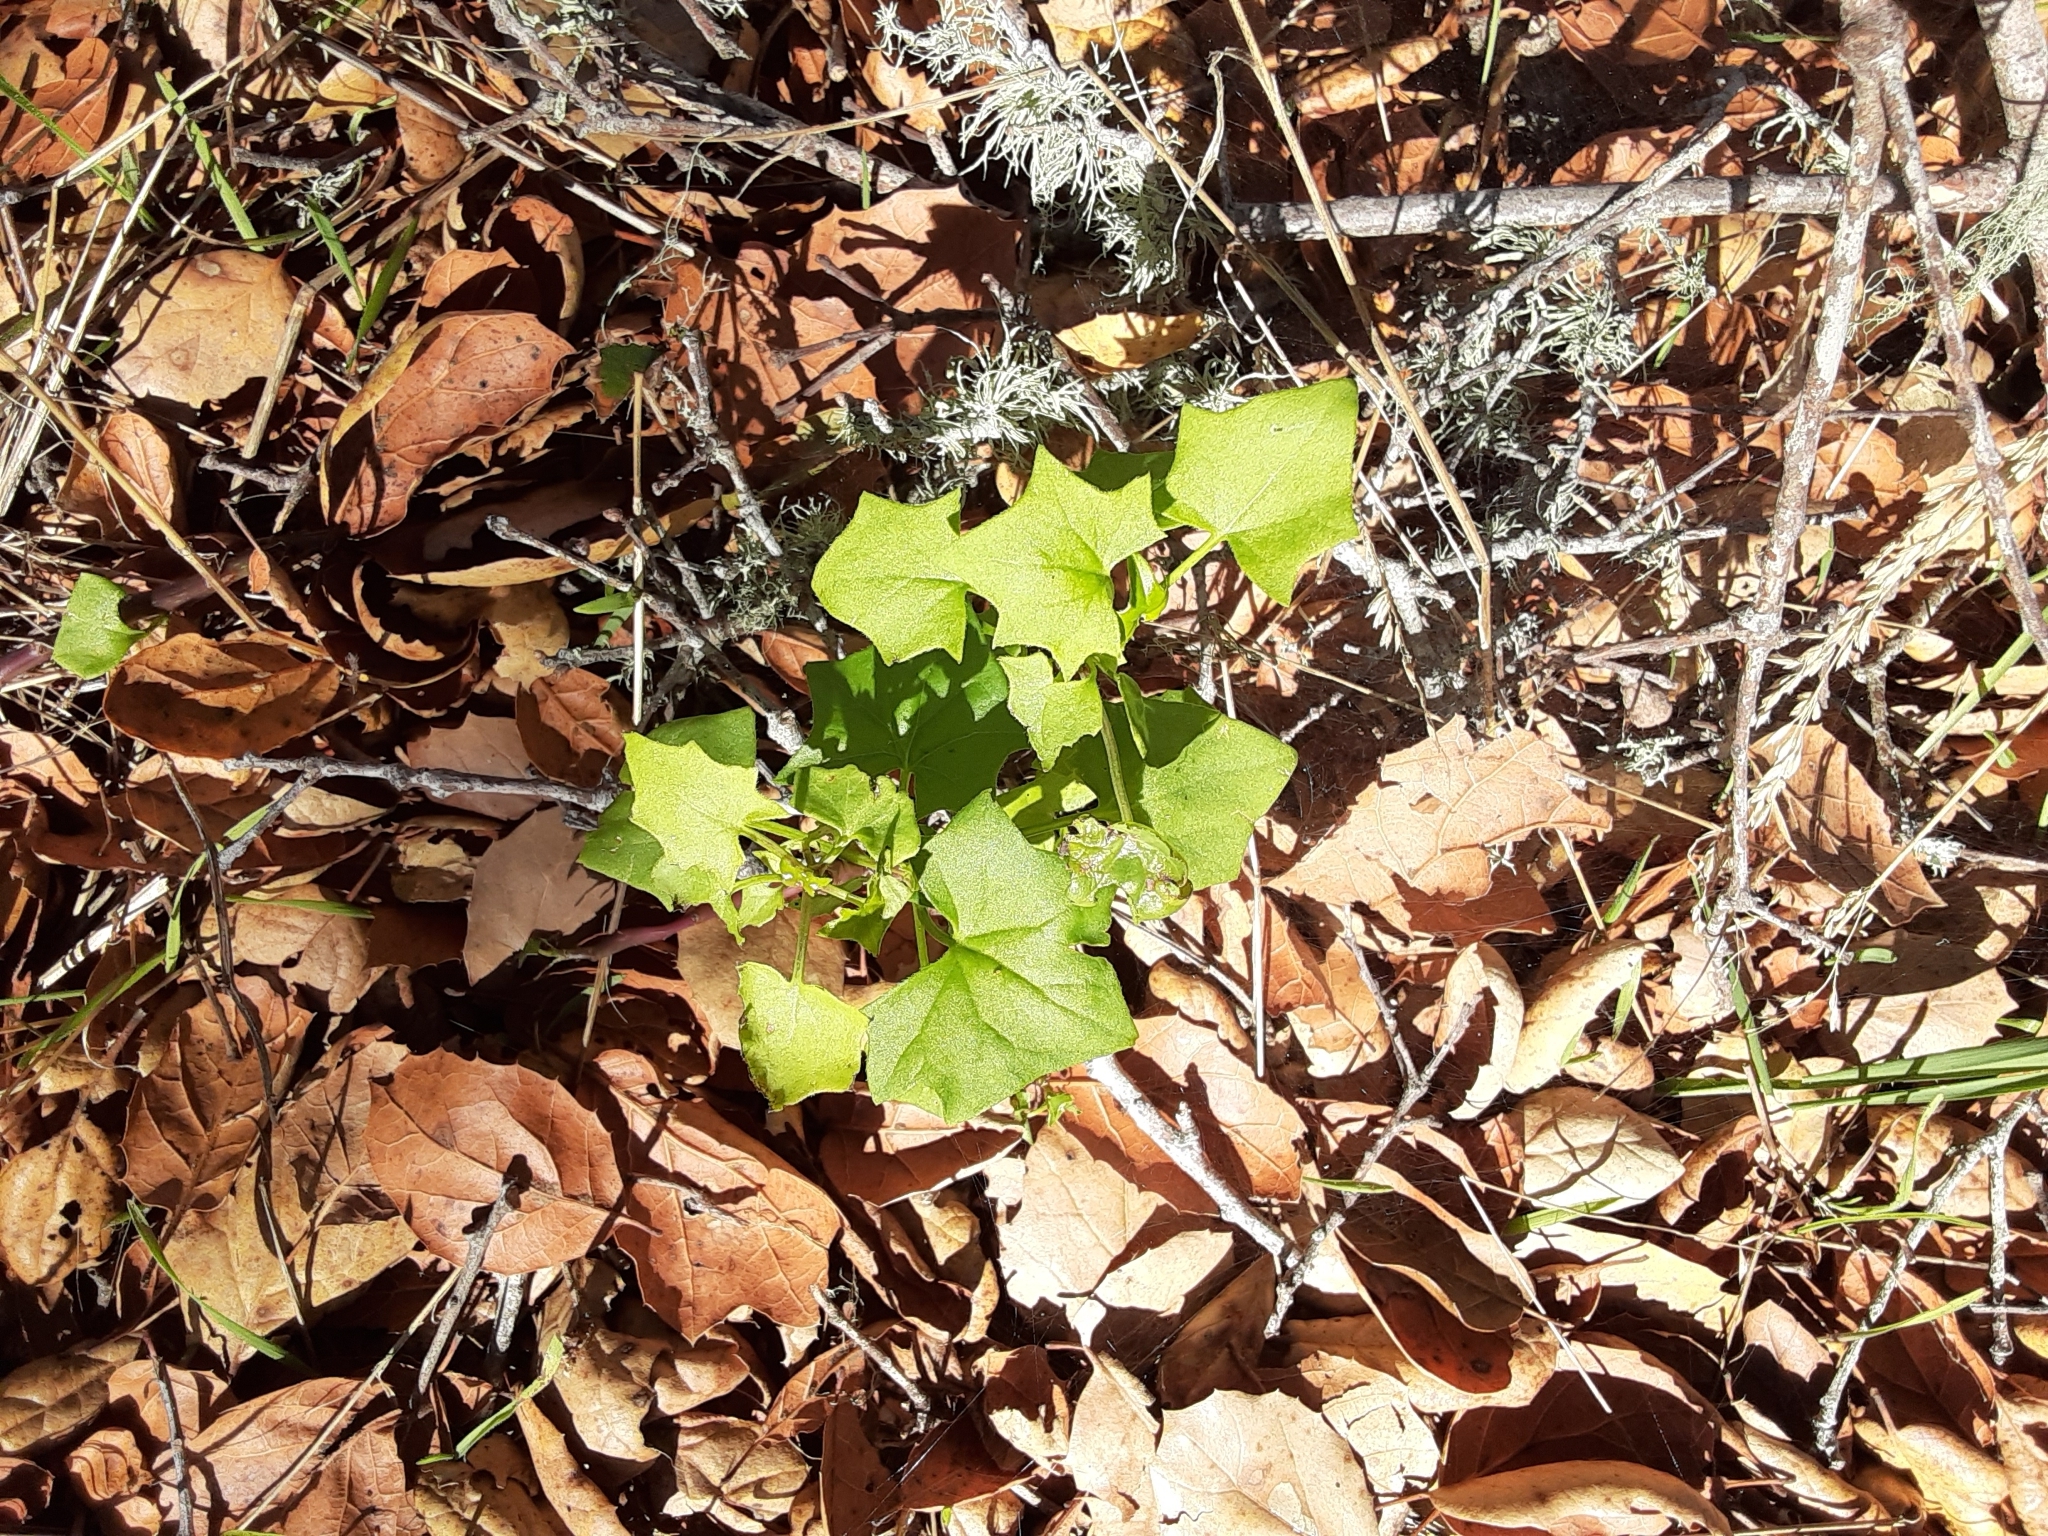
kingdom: Plantae
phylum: Tracheophyta
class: Magnoliopsida
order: Asterales
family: Asteraceae
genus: Delairea
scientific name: Delairea odorata
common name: Cape-ivy
